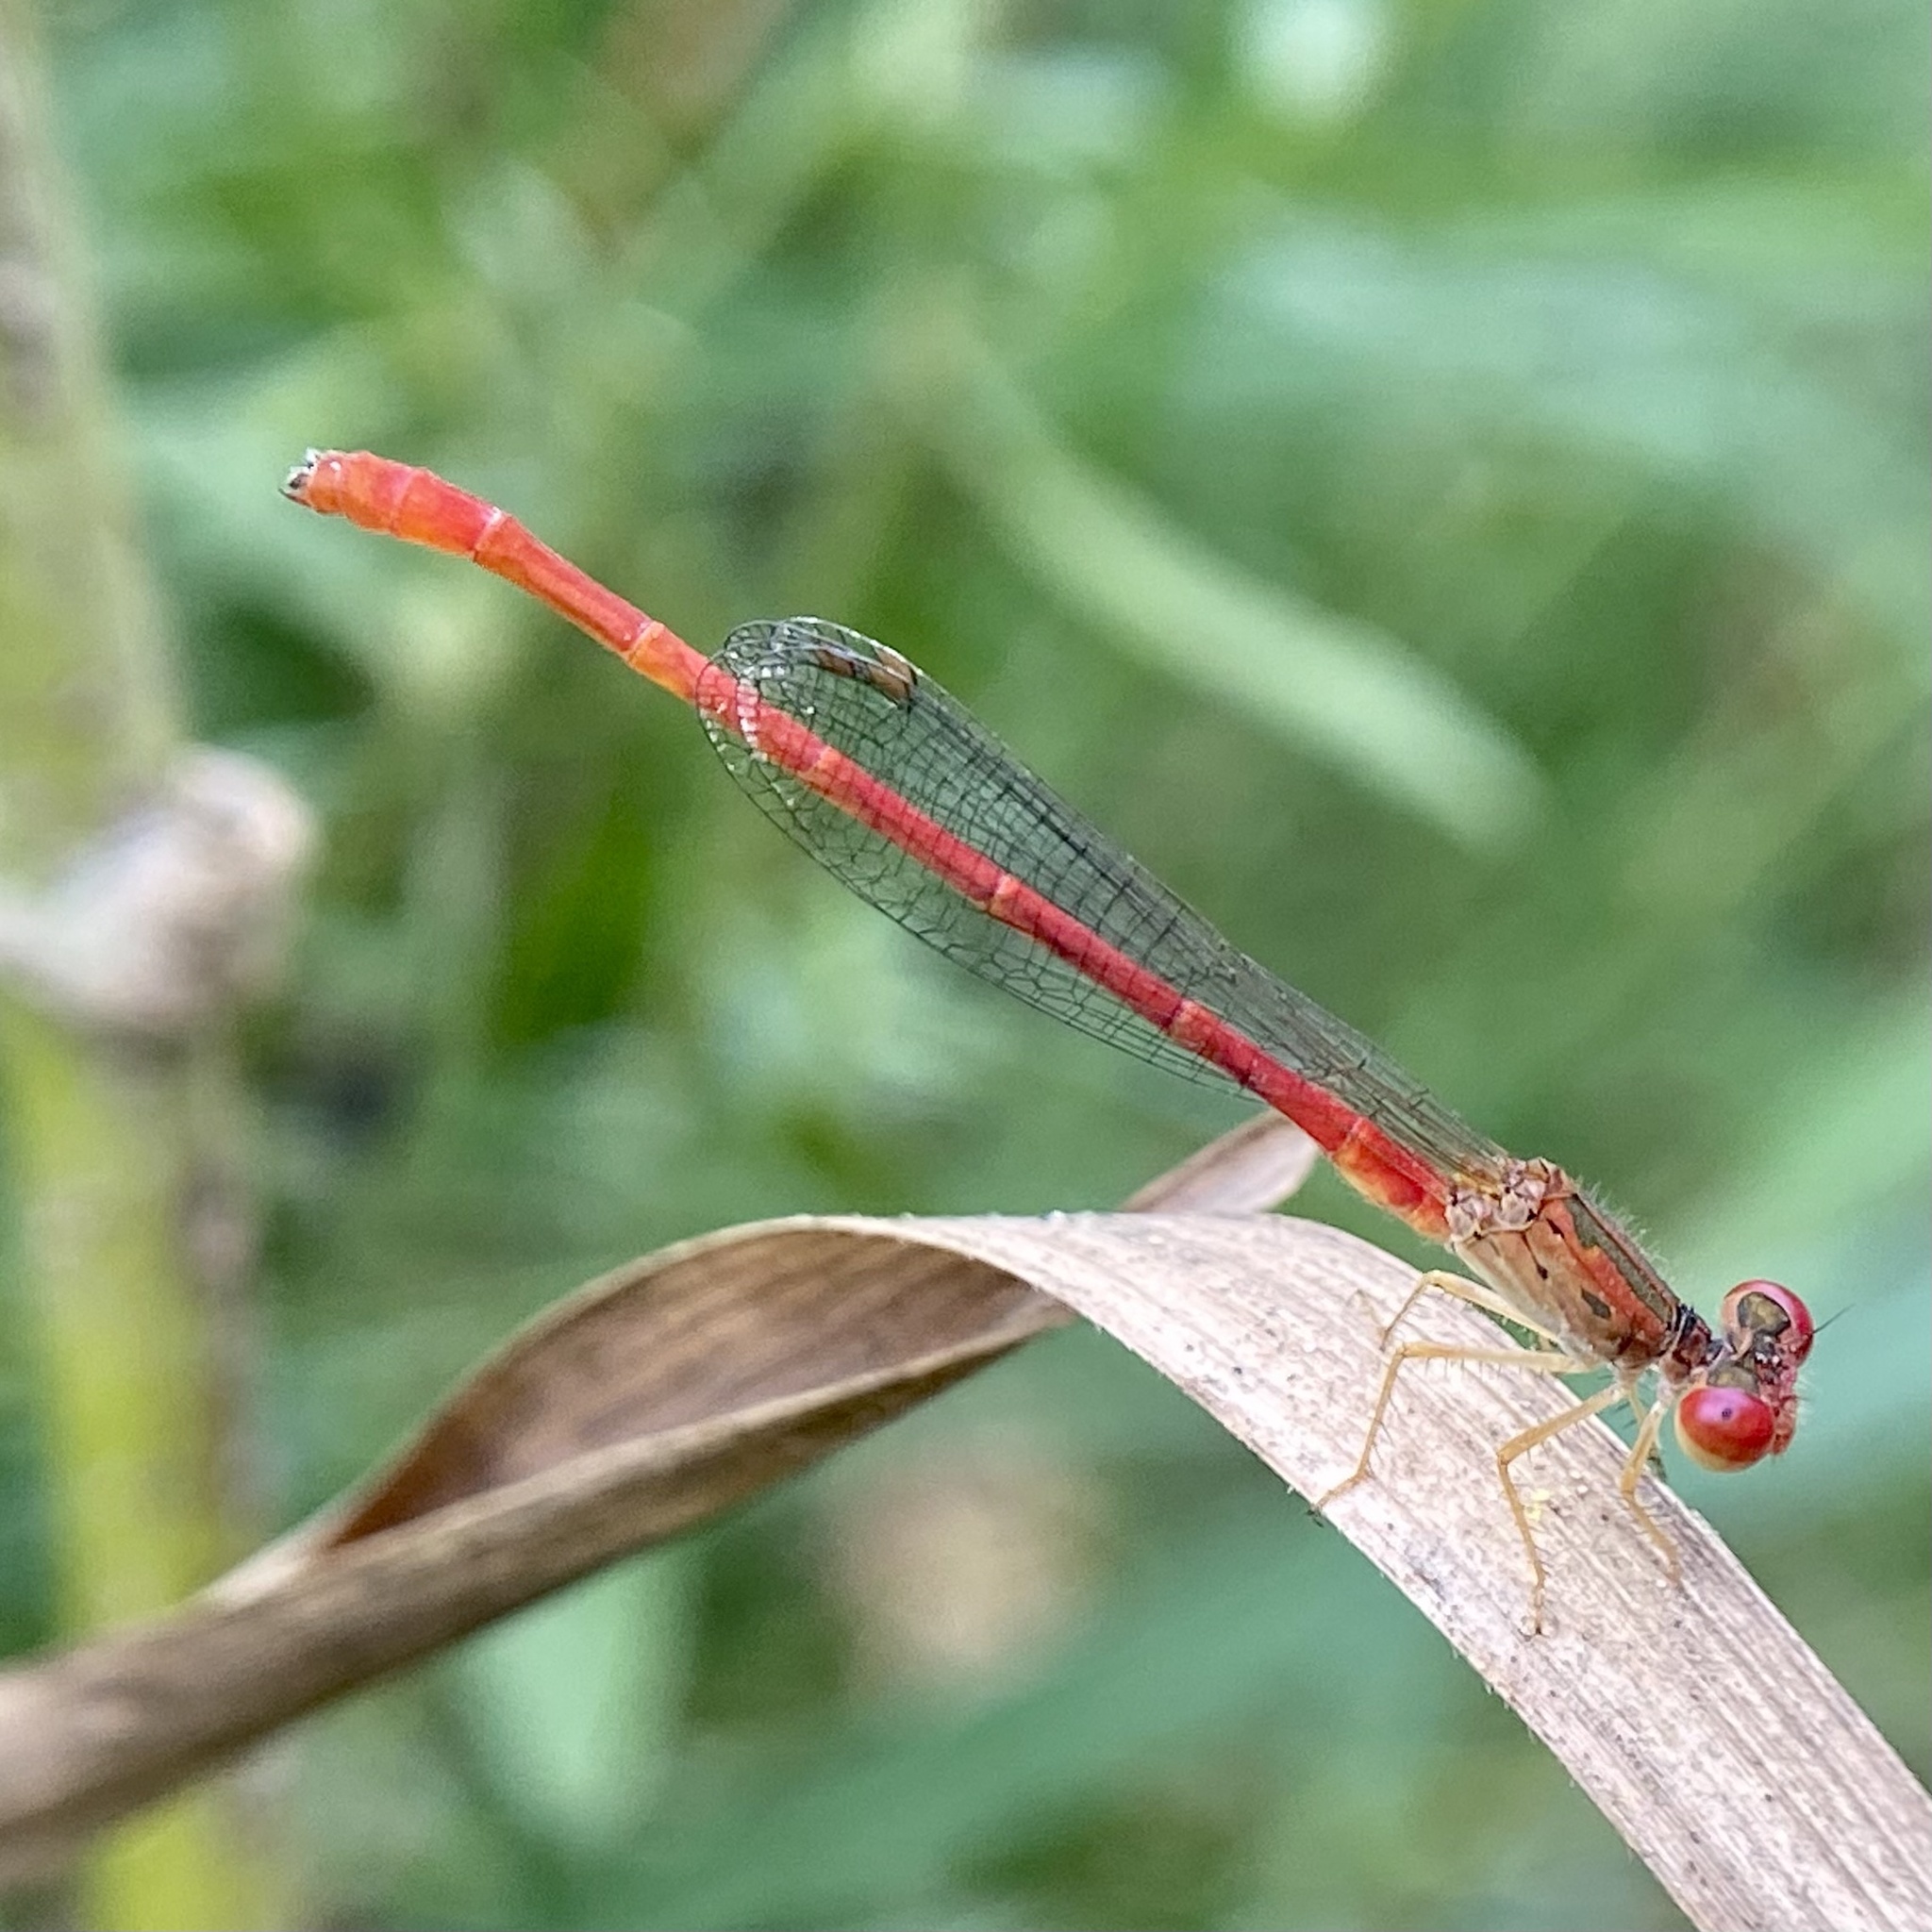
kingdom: Animalia
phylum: Arthropoda
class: Insecta
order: Odonata
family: Coenagrionidae
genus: Telebasis
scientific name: Telebasis salva
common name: Desert firetail
